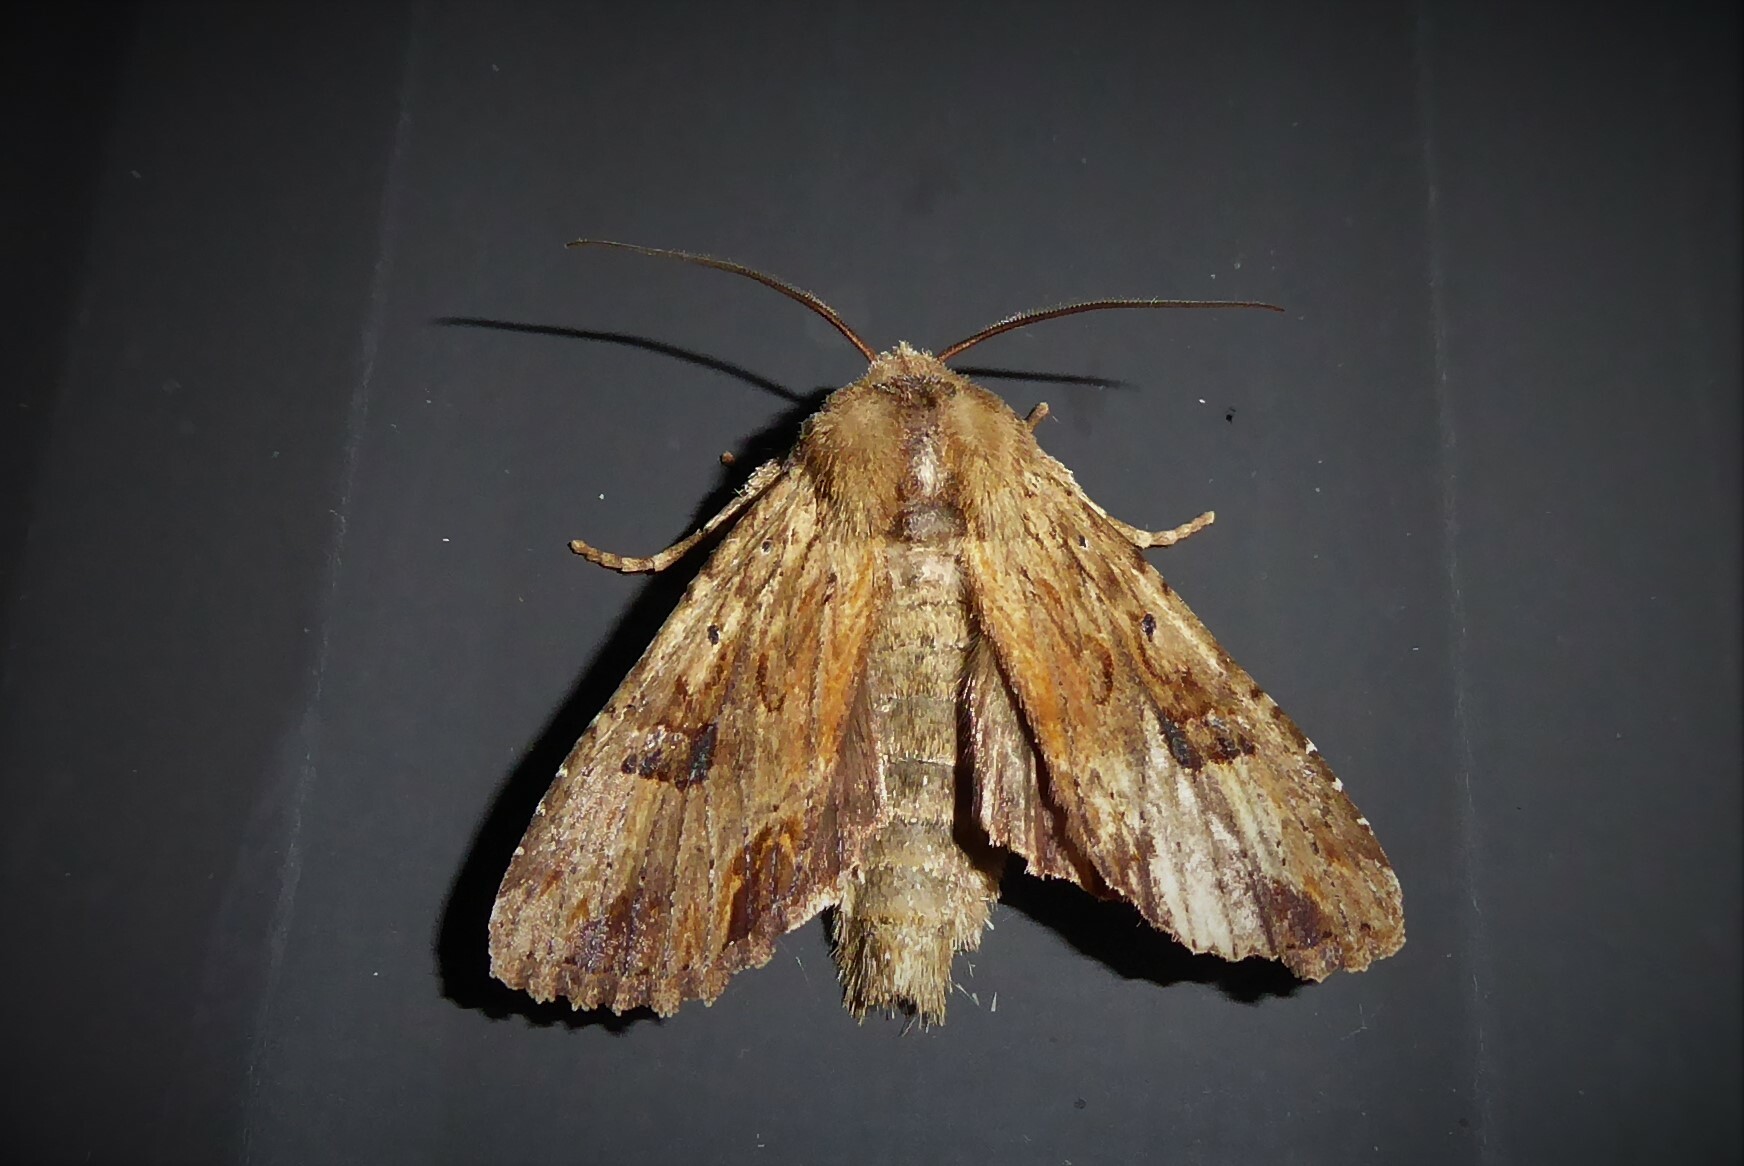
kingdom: Animalia
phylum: Arthropoda
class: Insecta
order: Lepidoptera
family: Noctuidae
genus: Ichneutica
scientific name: Ichneutica
